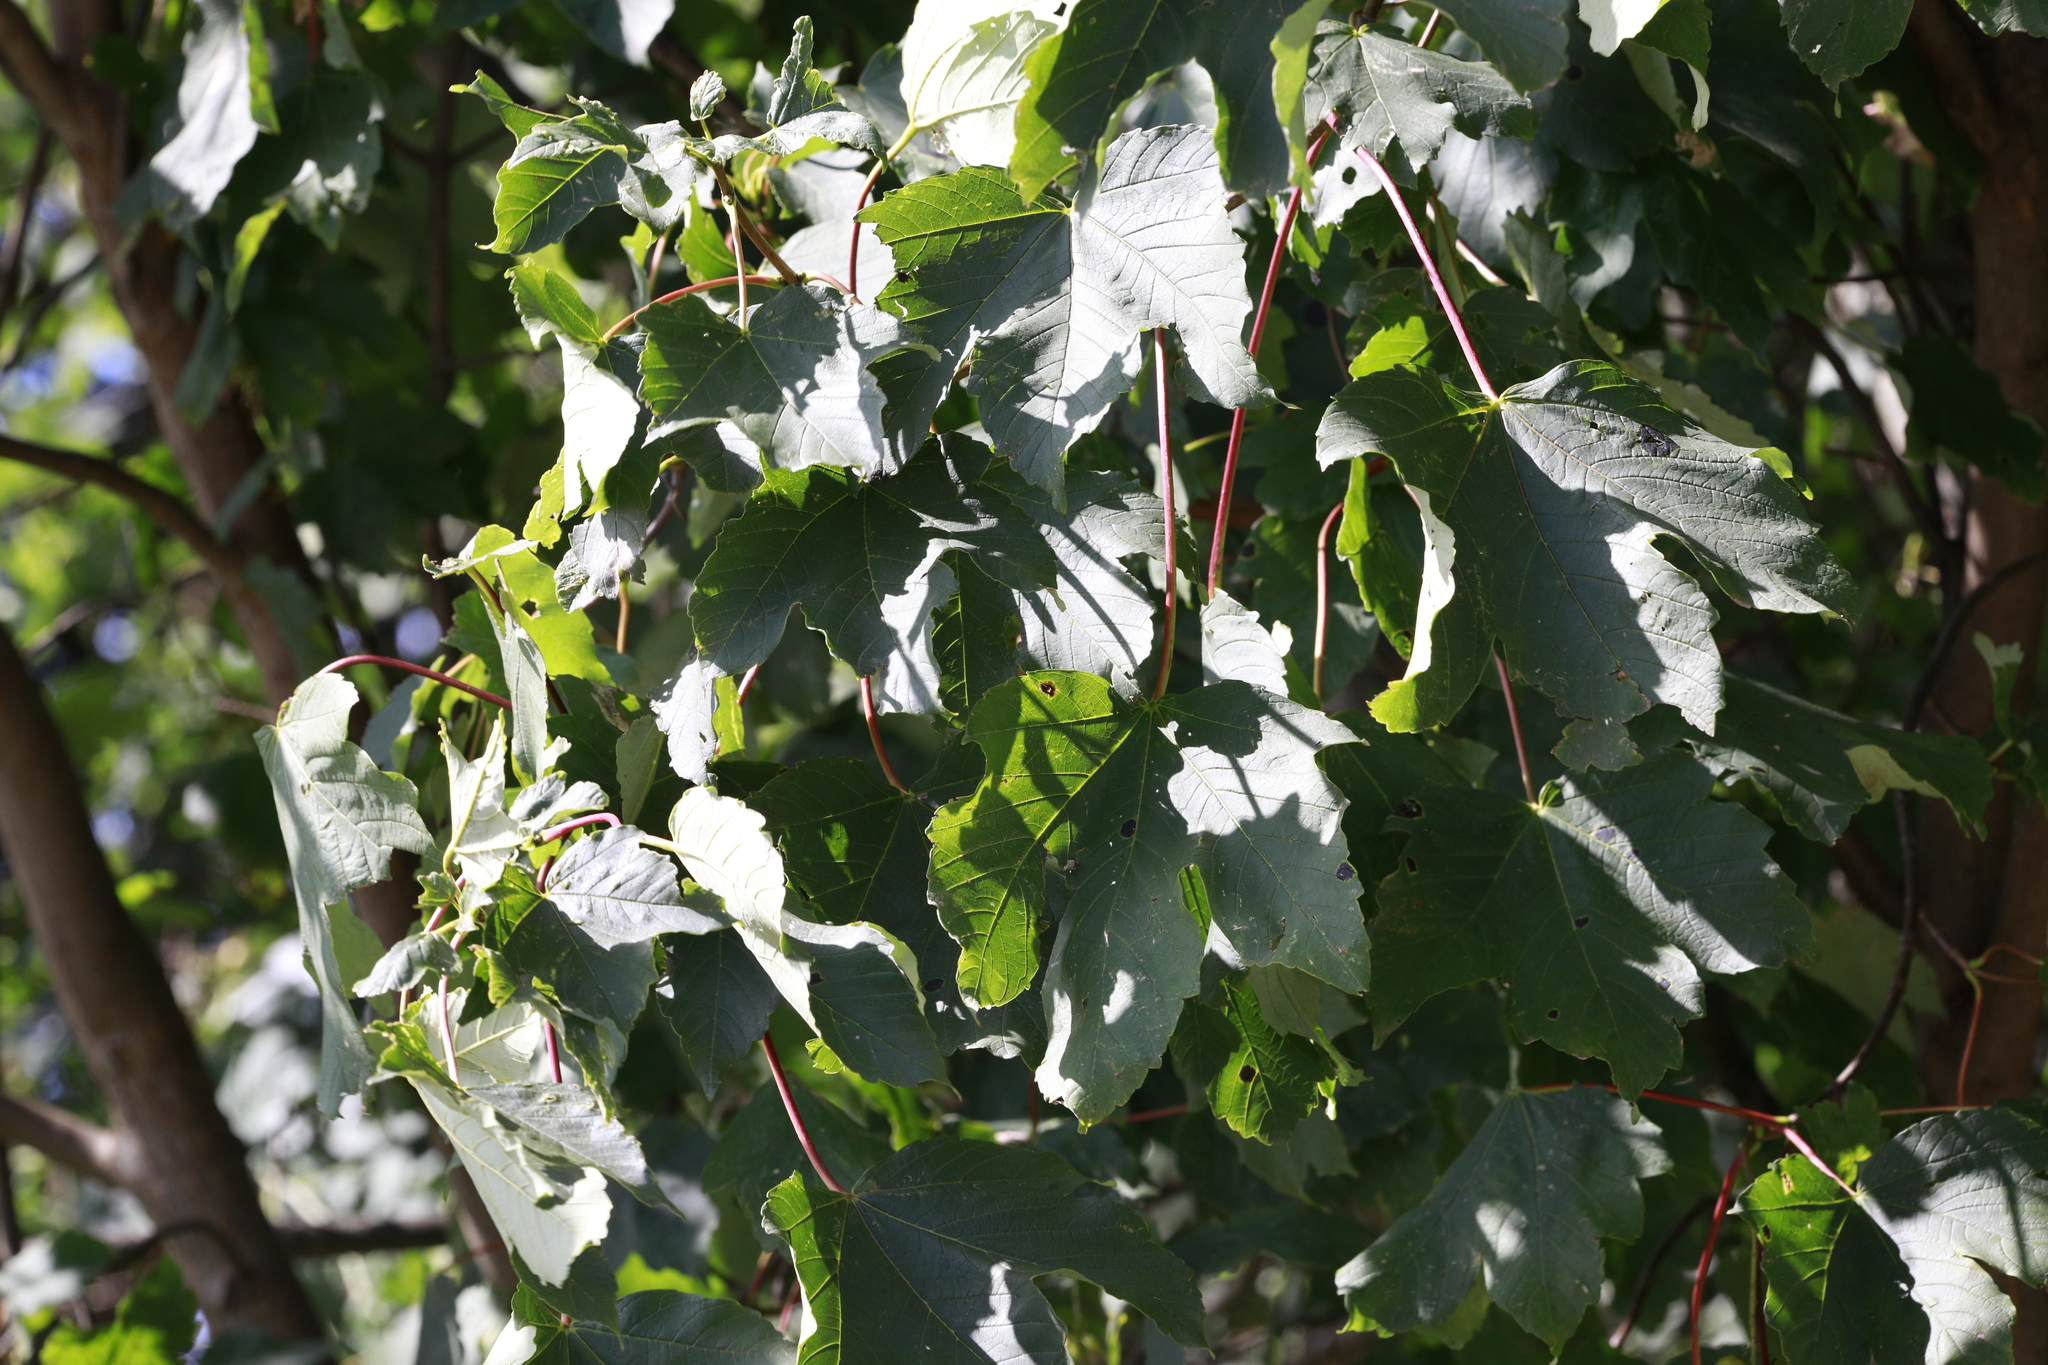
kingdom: Plantae
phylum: Tracheophyta
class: Magnoliopsida
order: Sapindales
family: Sapindaceae
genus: Acer
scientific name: Acer pseudoplatanus
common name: Sycamore
